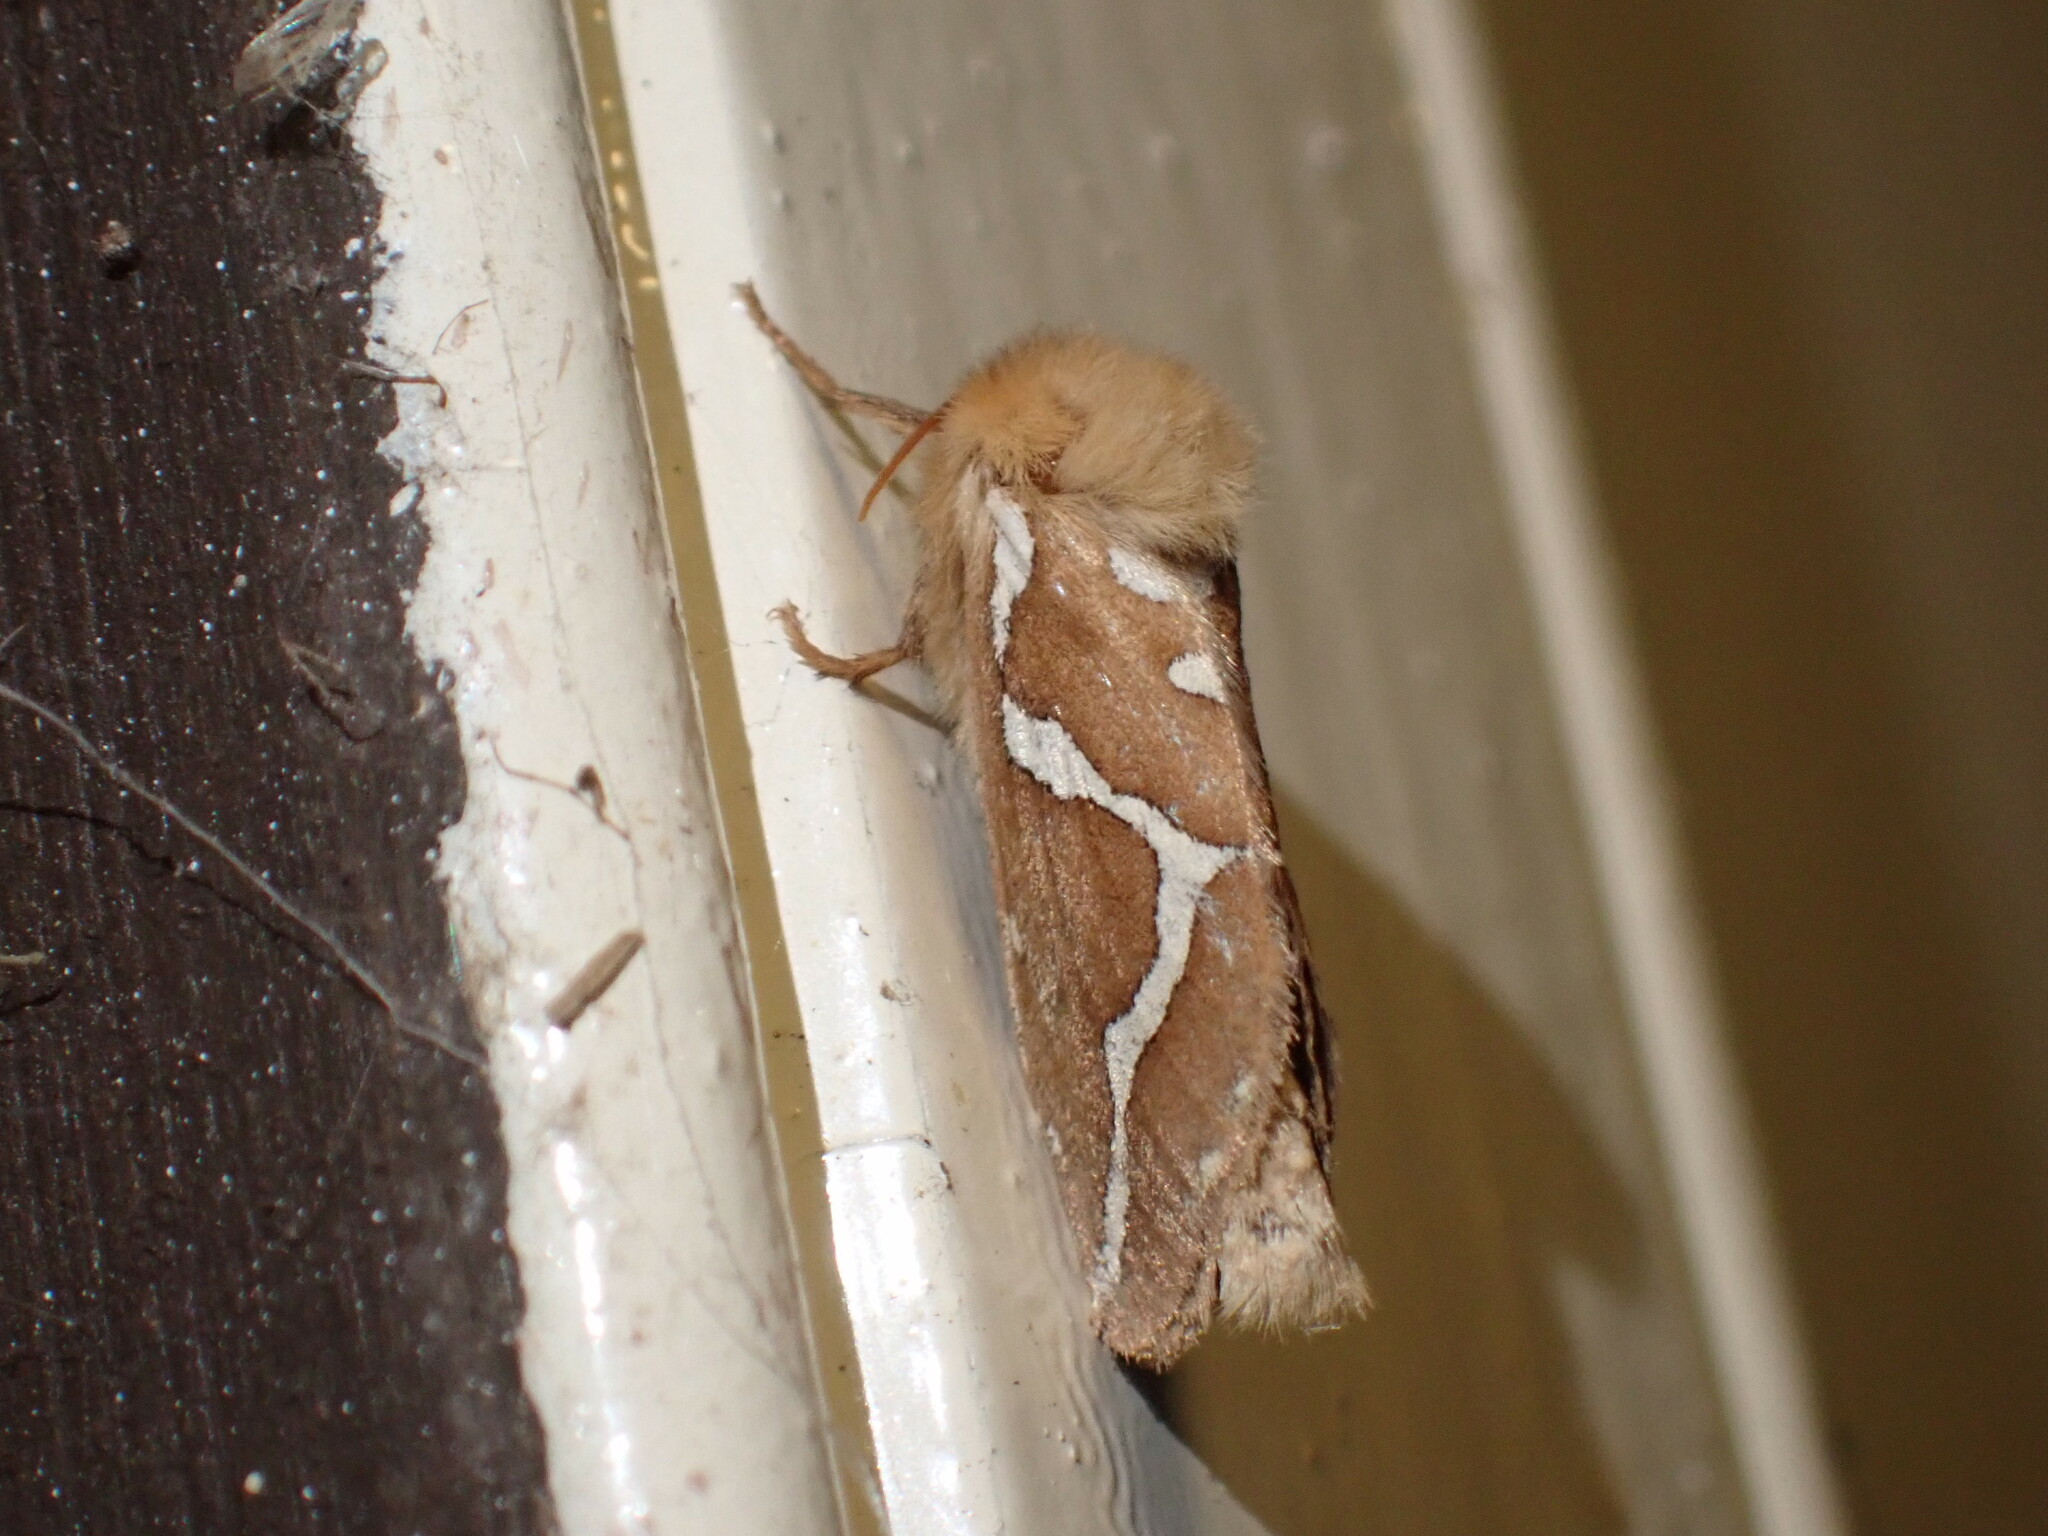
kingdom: Animalia
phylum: Arthropoda
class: Insecta
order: Lepidoptera
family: Hepialidae
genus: Gazoryctra
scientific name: Gazoryctra novigannus
